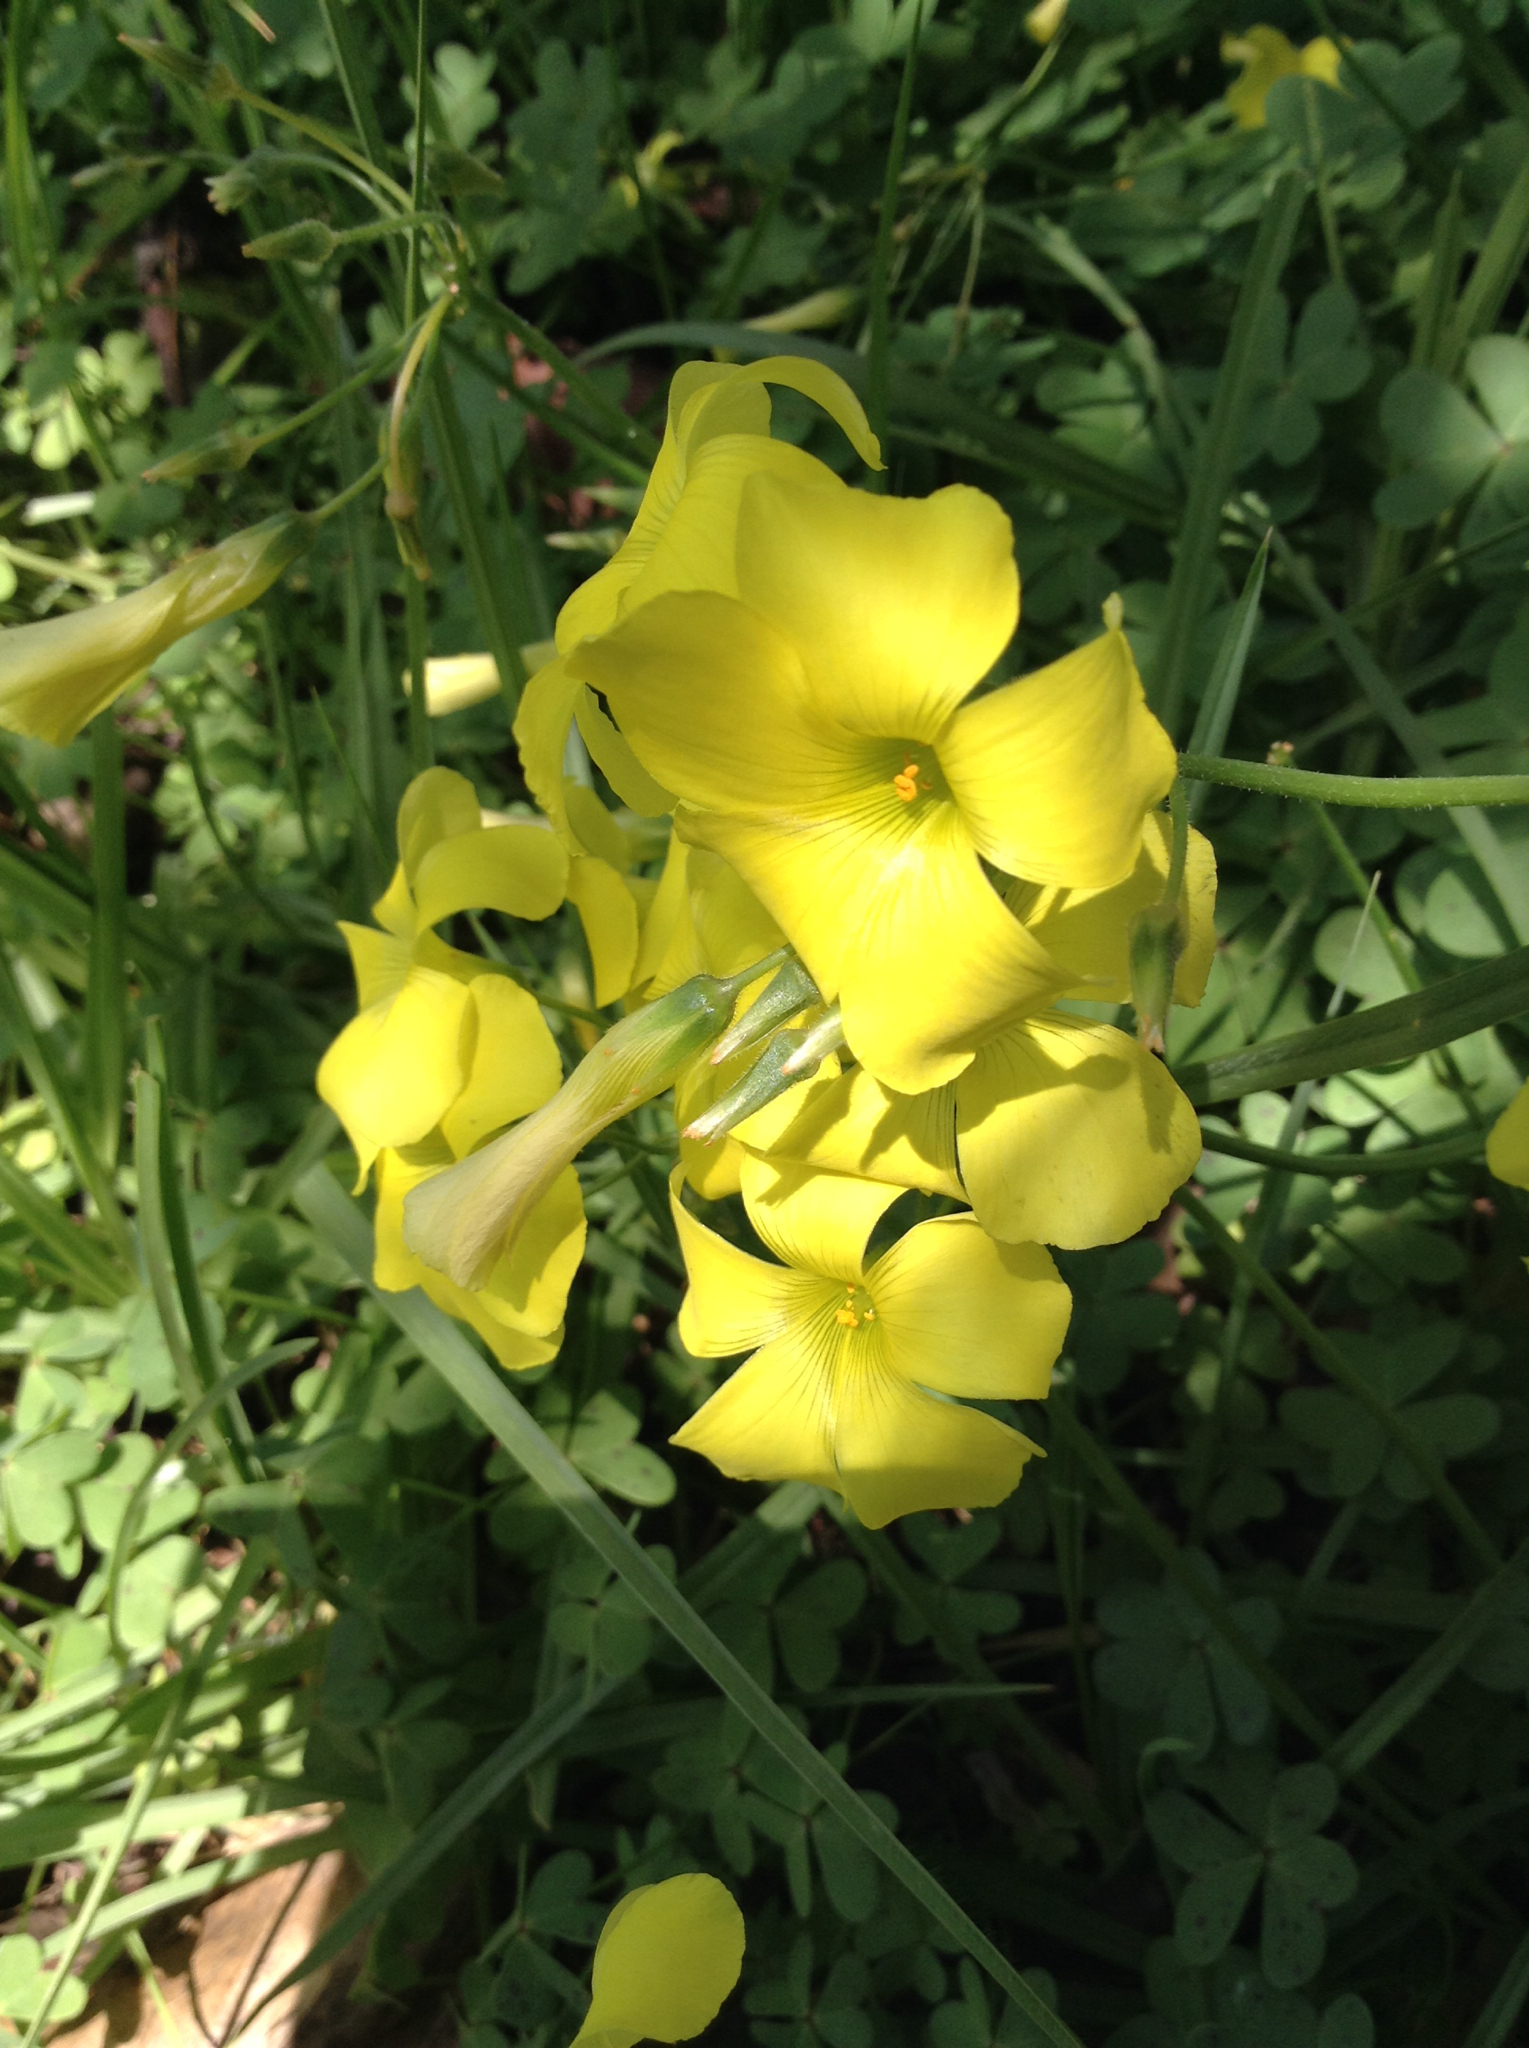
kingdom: Plantae
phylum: Tracheophyta
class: Magnoliopsida
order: Oxalidales
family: Oxalidaceae
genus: Oxalis
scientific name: Oxalis pes-caprae
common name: Bermuda-buttercup
